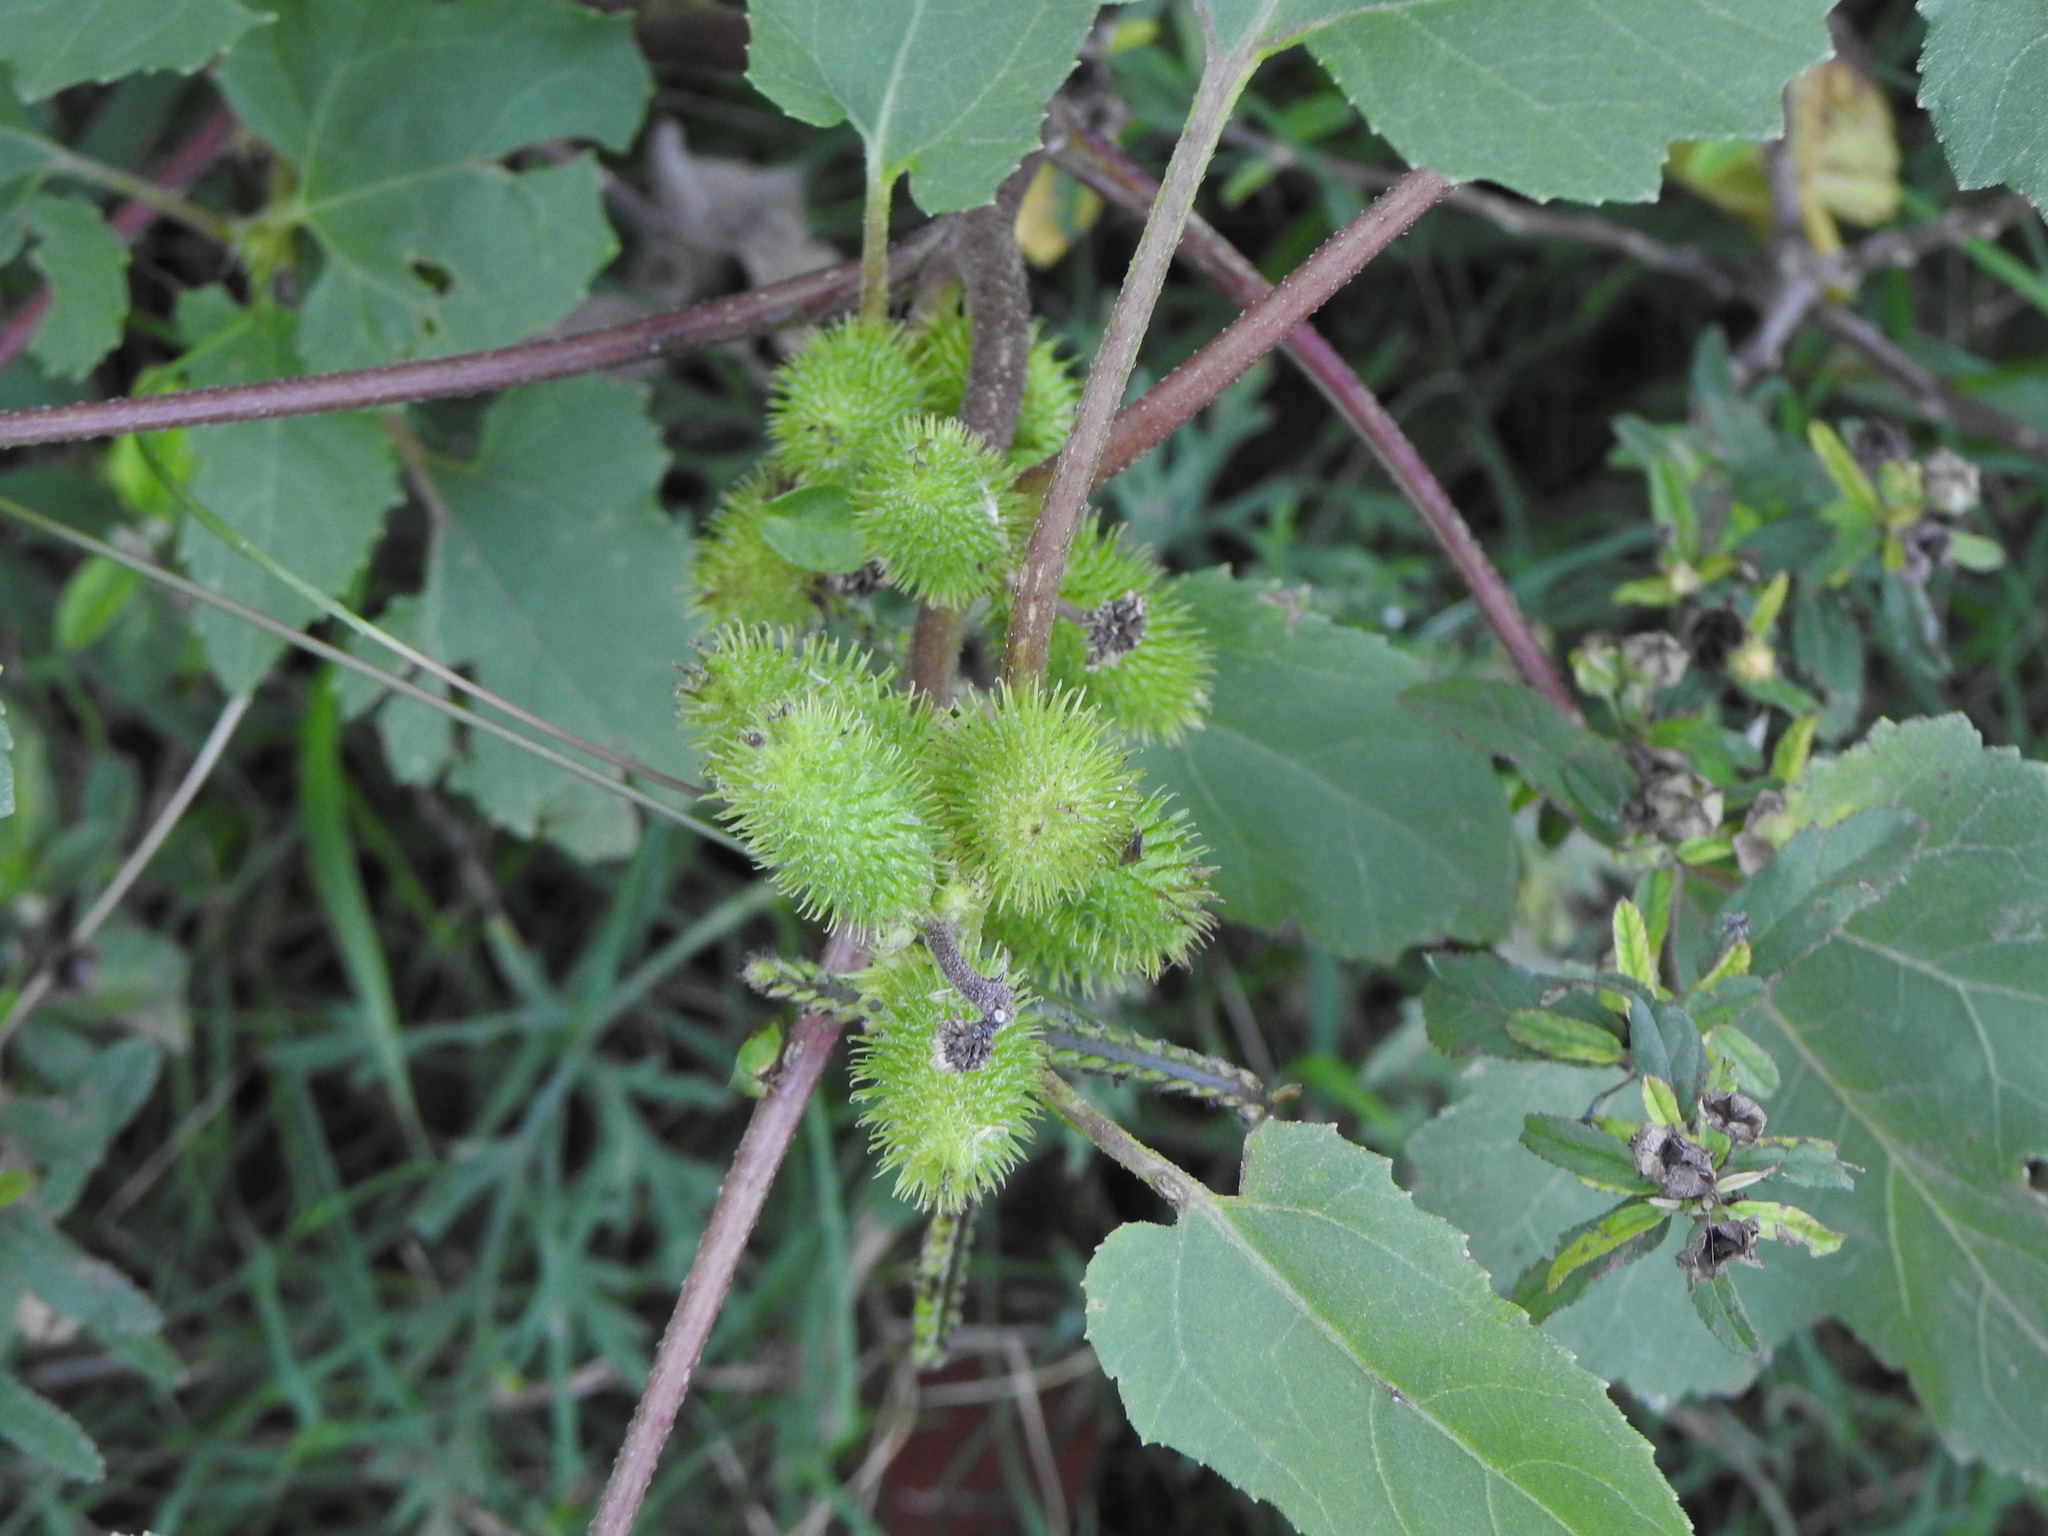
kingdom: Plantae
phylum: Tracheophyta
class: Magnoliopsida
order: Asterales
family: Asteraceae
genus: Xanthium
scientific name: Xanthium strumarium
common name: Rough cocklebur
